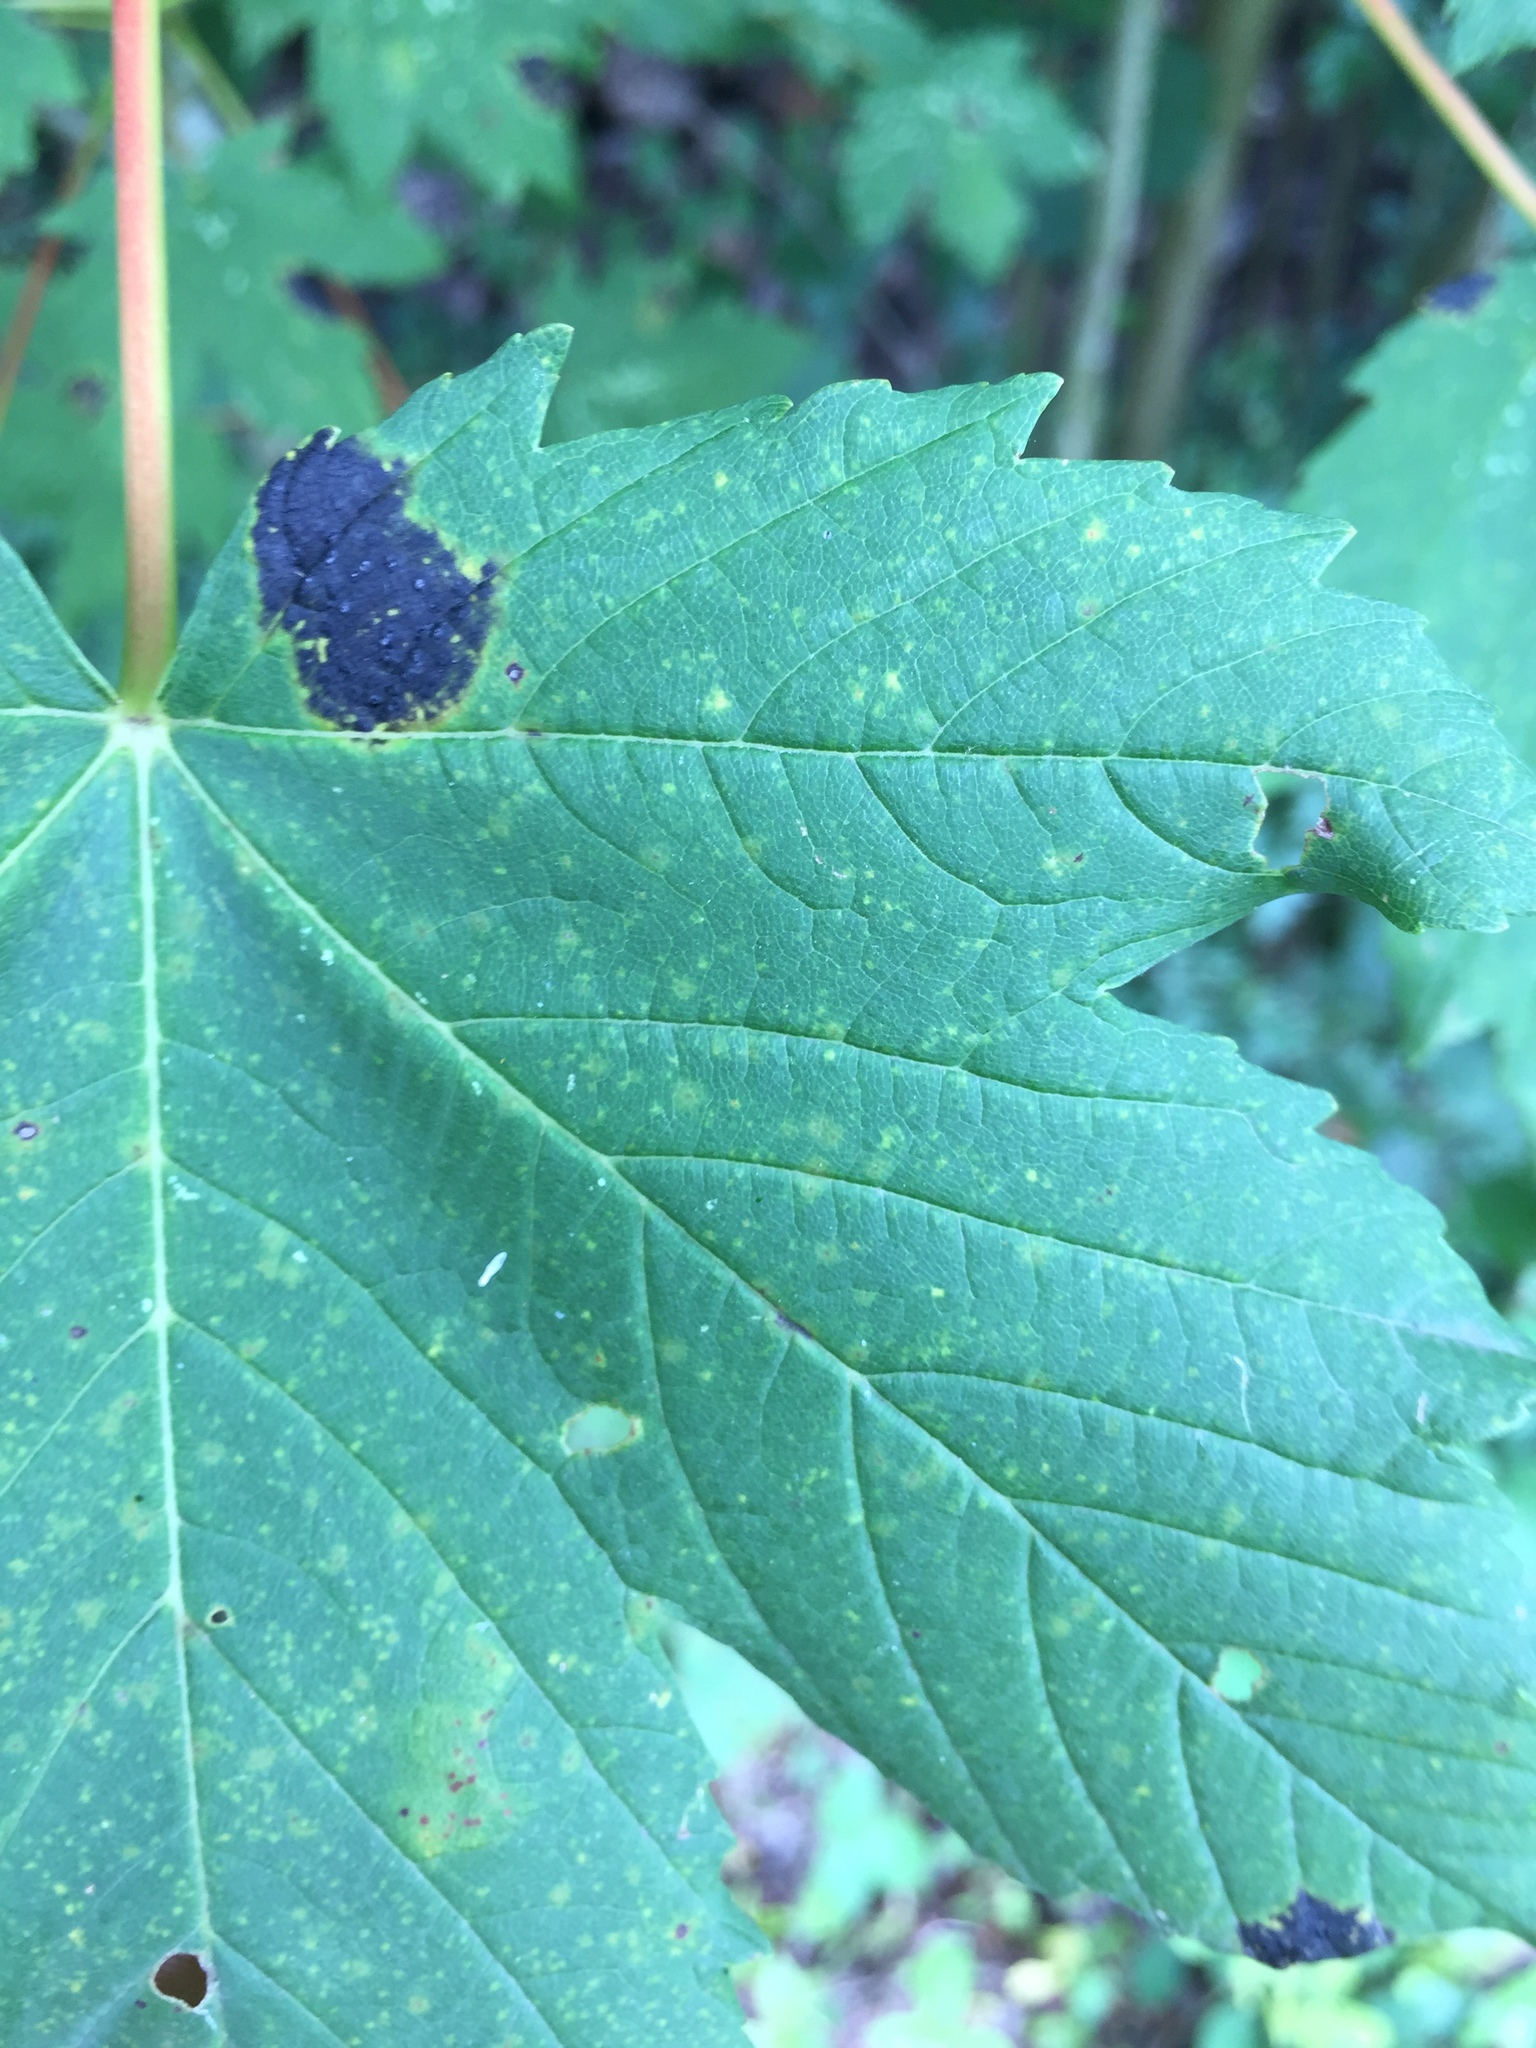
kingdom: Fungi
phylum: Ascomycota
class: Leotiomycetes
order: Rhytismatales
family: Rhytismataceae
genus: Rhytisma
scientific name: Rhytisma acerinum
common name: European tar spot
